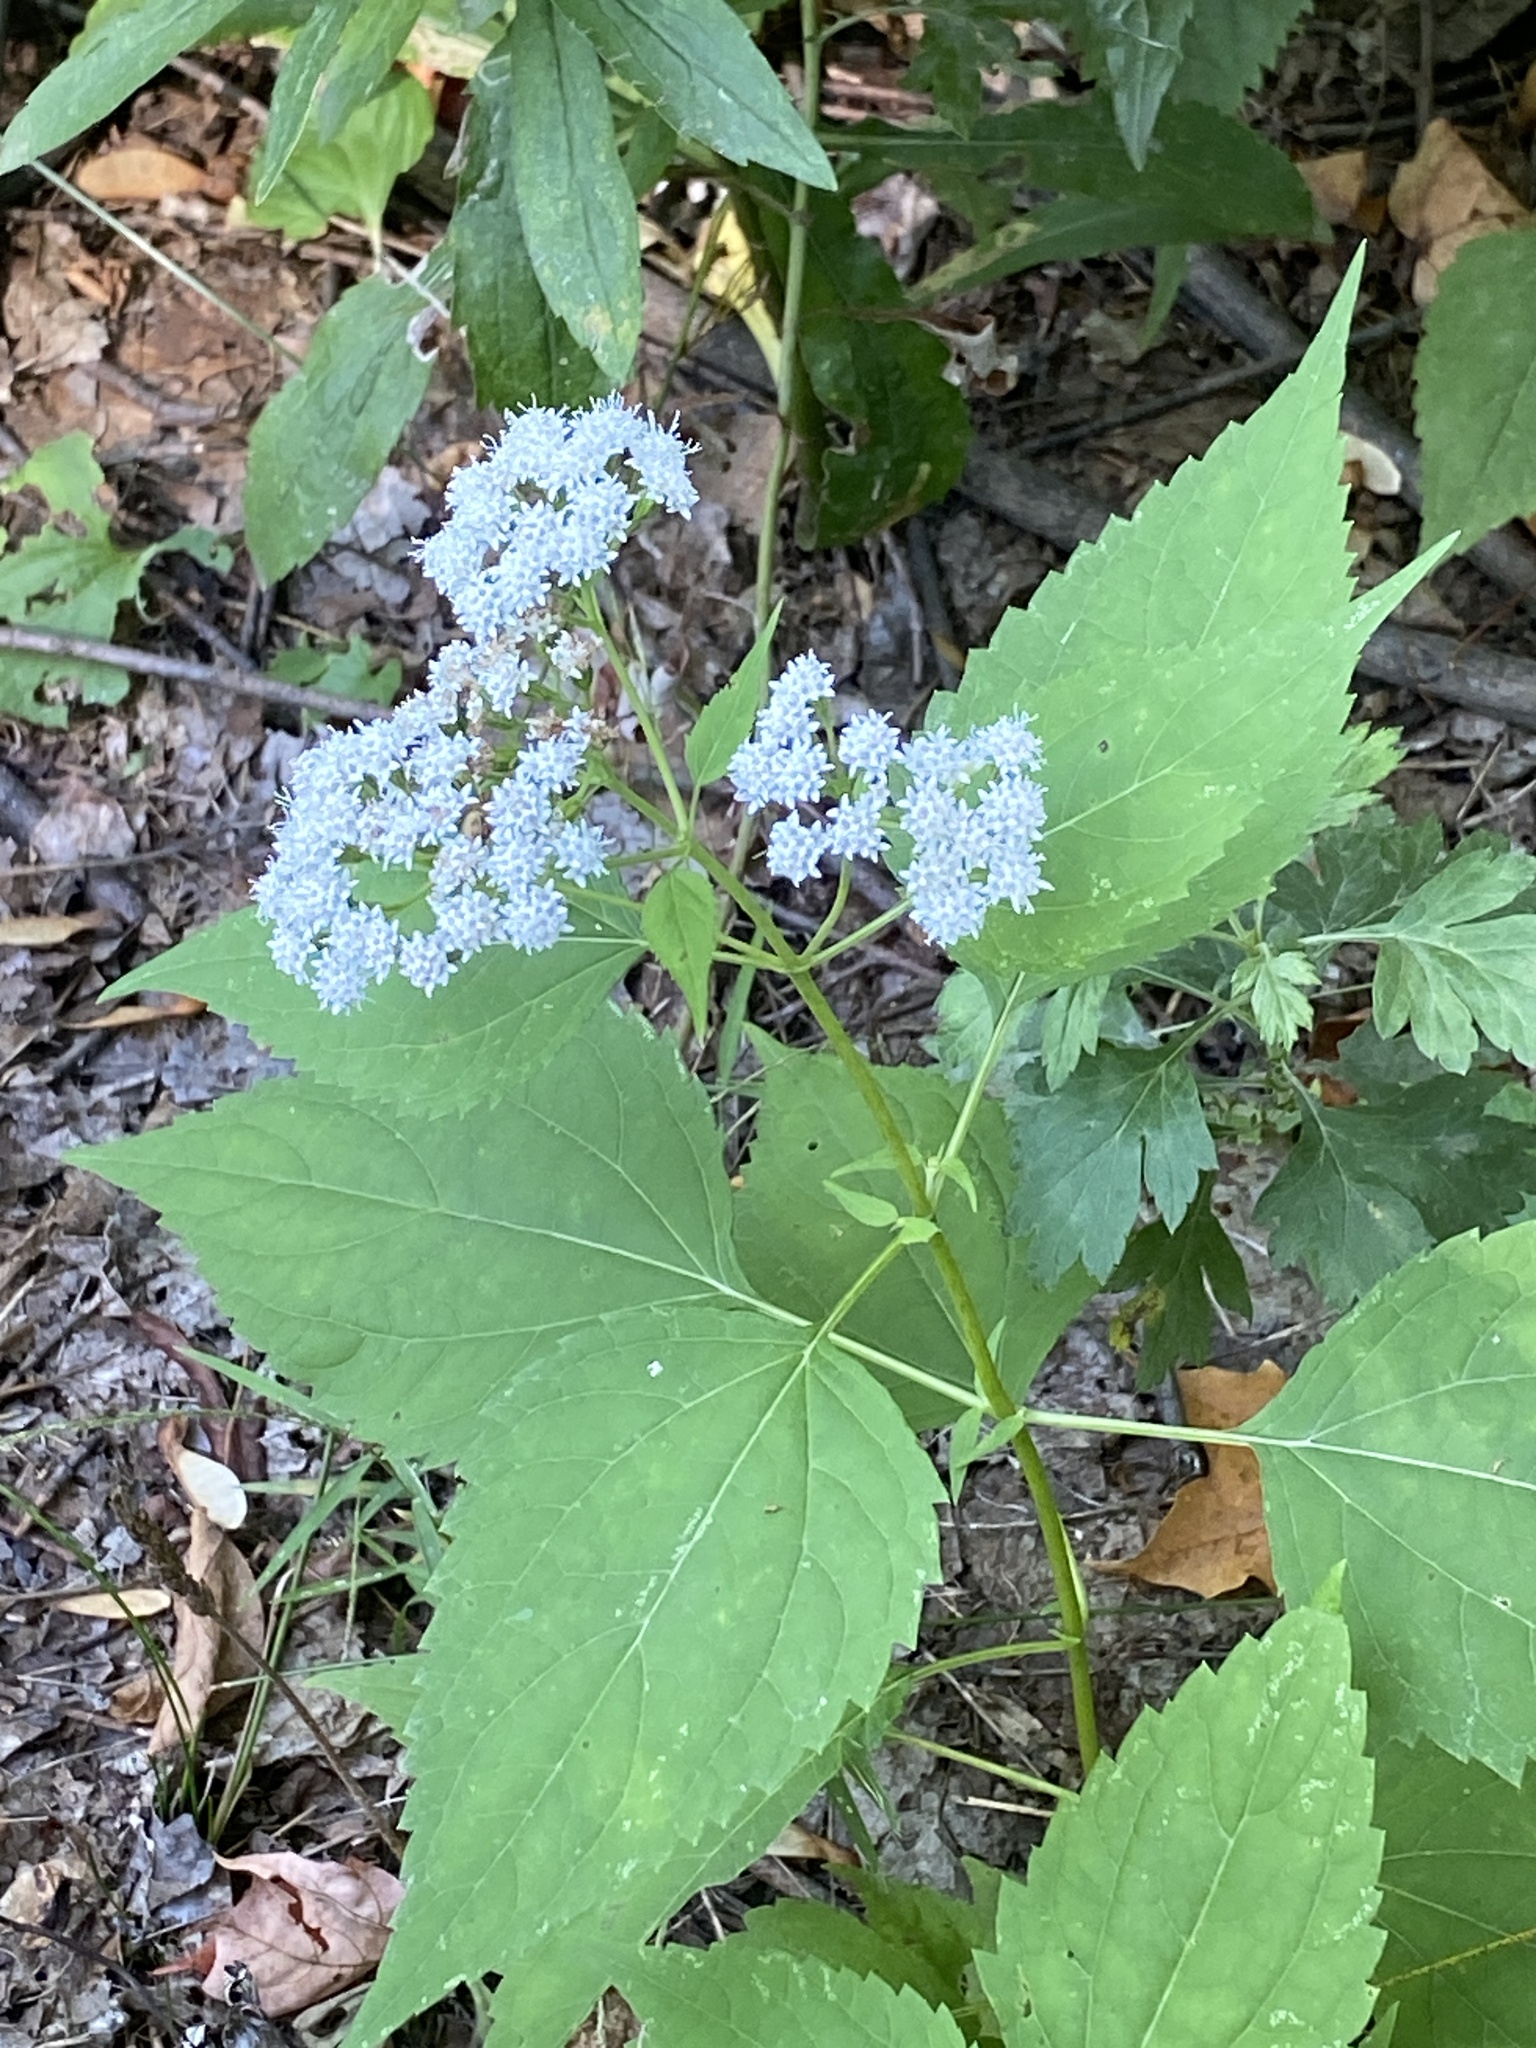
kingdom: Plantae
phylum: Tracheophyta
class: Magnoliopsida
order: Asterales
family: Asteraceae
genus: Ageratina
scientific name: Ageratina altissima
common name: White snakeroot
